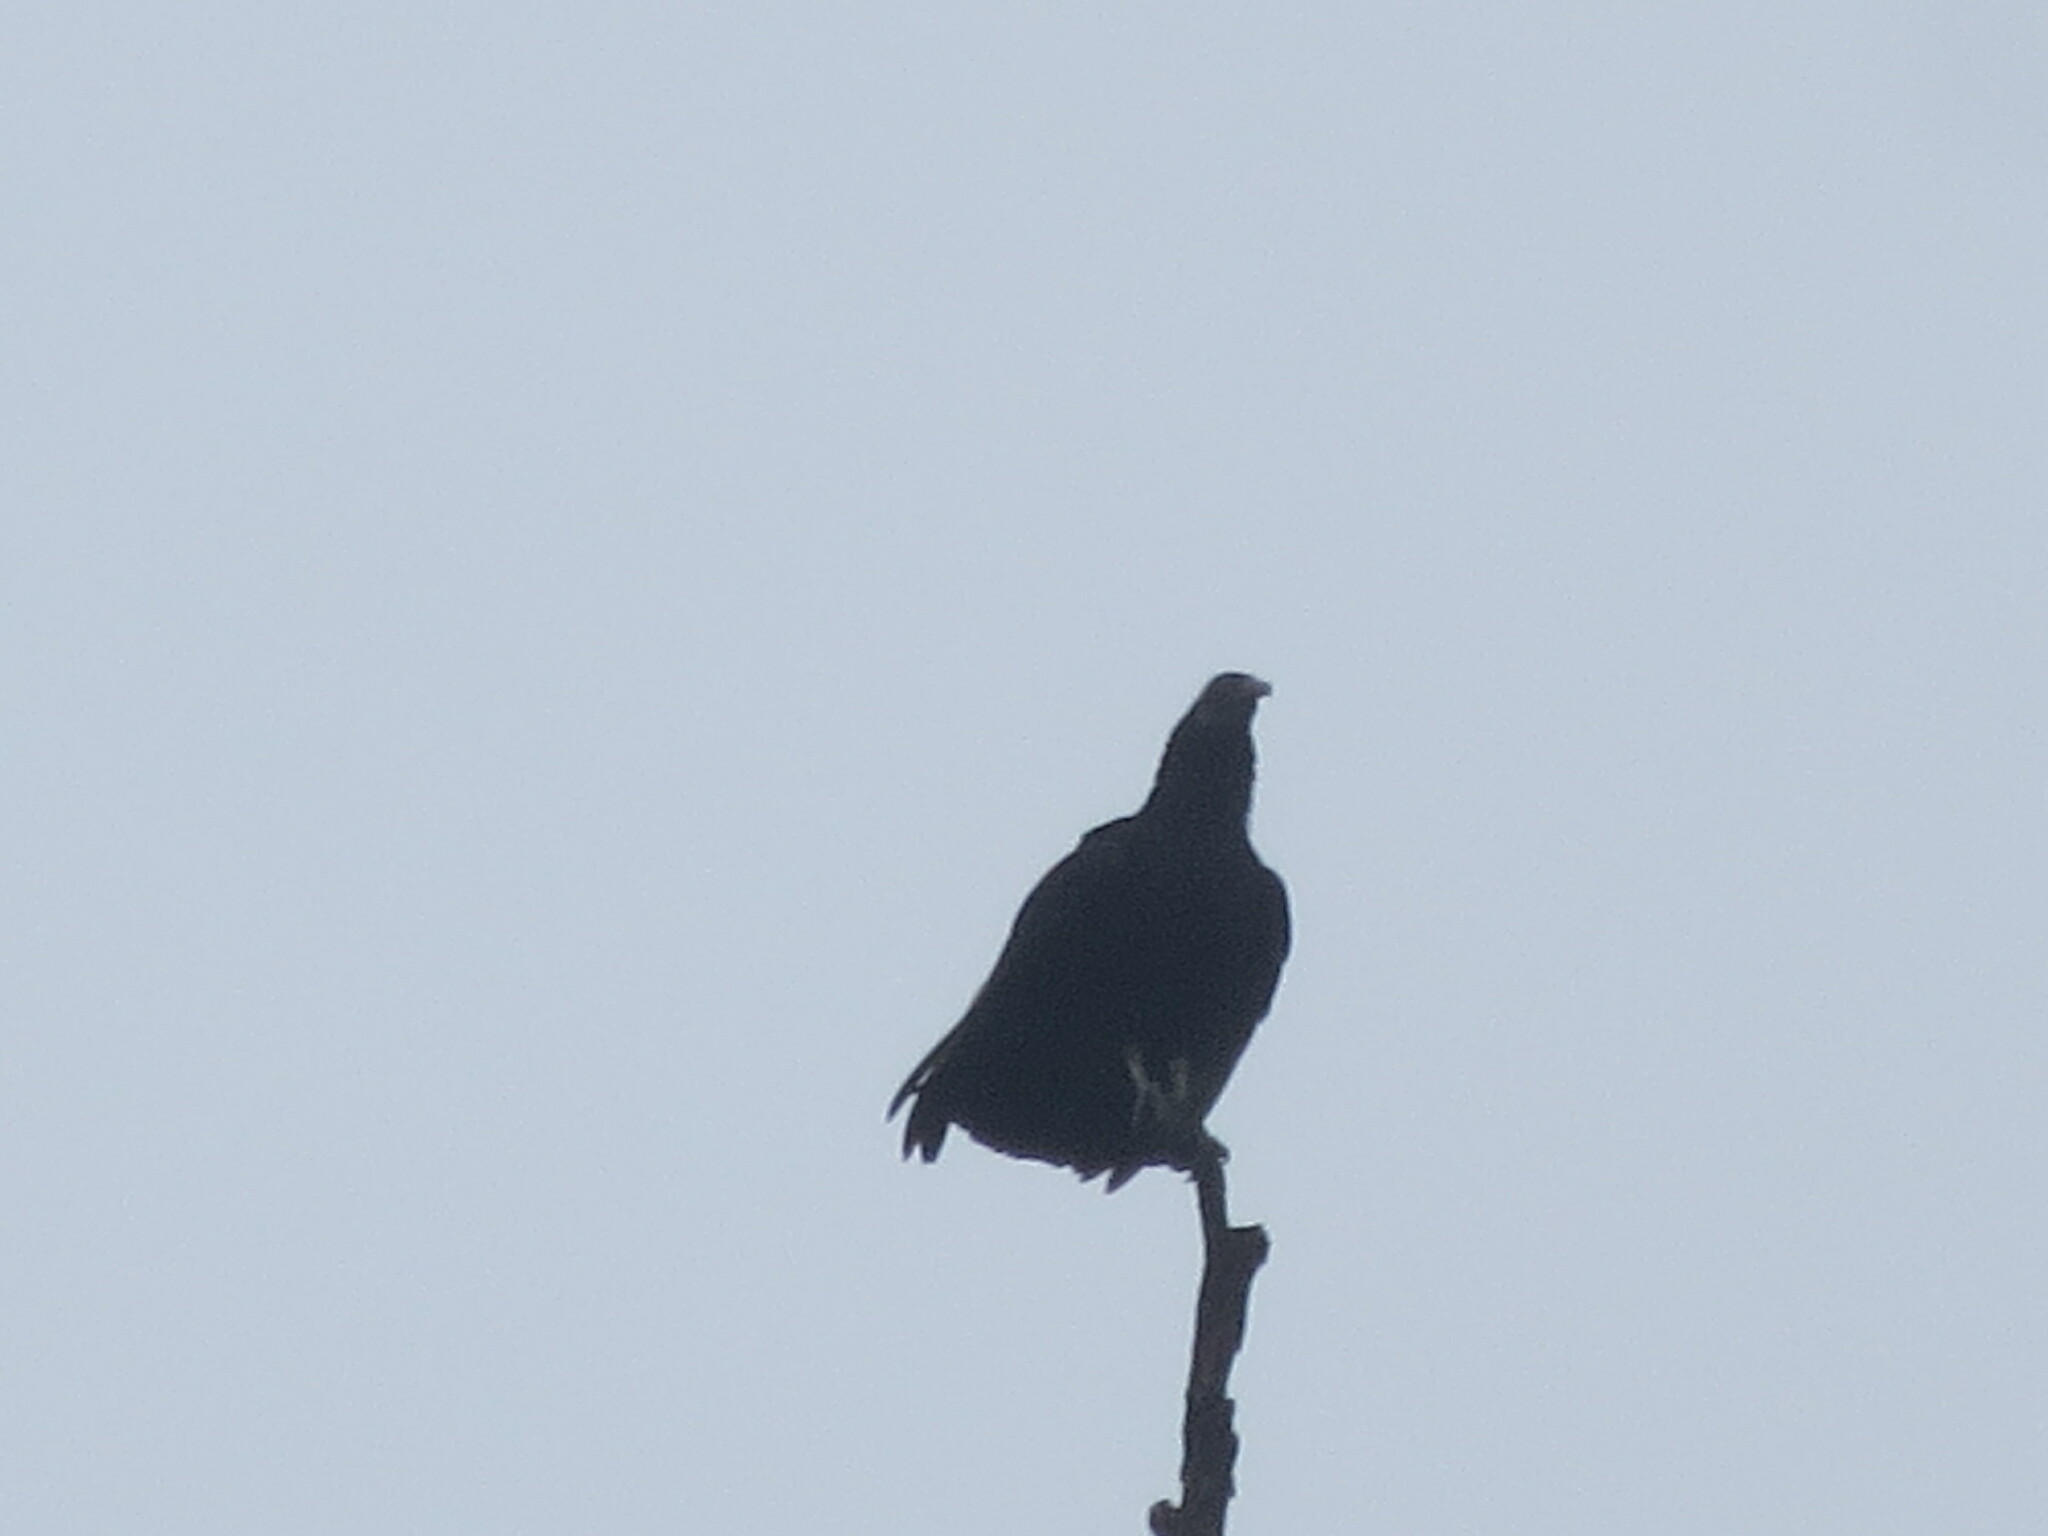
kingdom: Animalia
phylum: Chordata
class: Aves
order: Accipitriformes
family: Cathartidae
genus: Coragyps
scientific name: Coragyps atratus
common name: Black vulture
